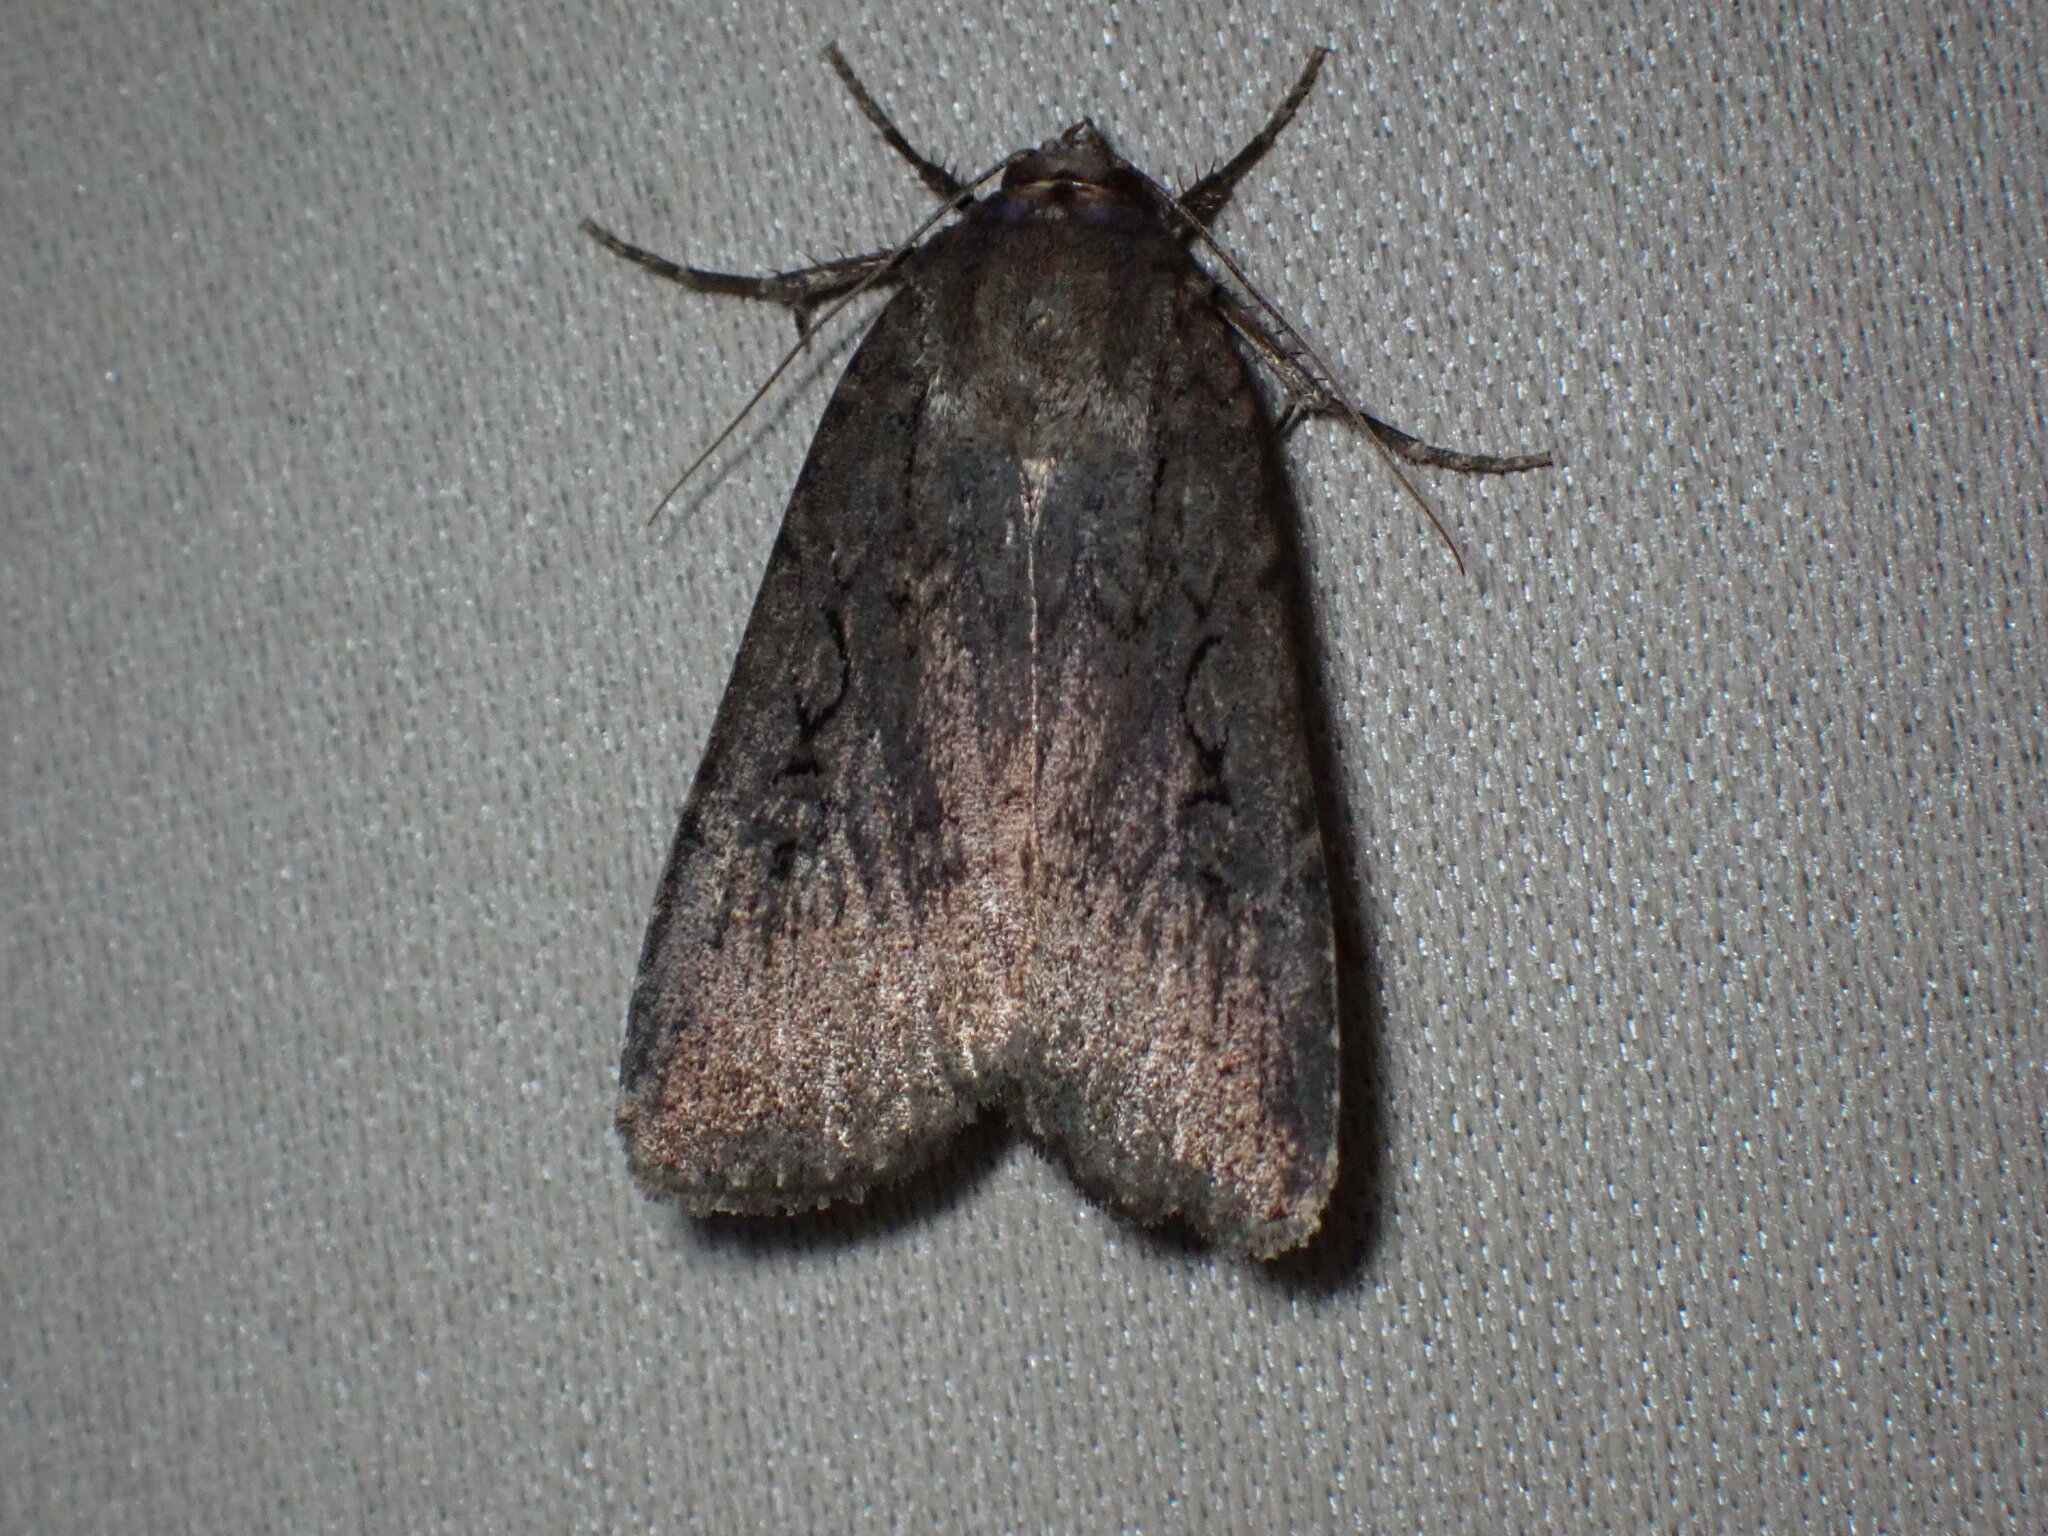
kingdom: Animalia
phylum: Arthropoda
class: Insecta
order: Lepidoptera
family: Noctuidae
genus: Spaelotis
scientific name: Spaelotis clandestina
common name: Clandestine dart
